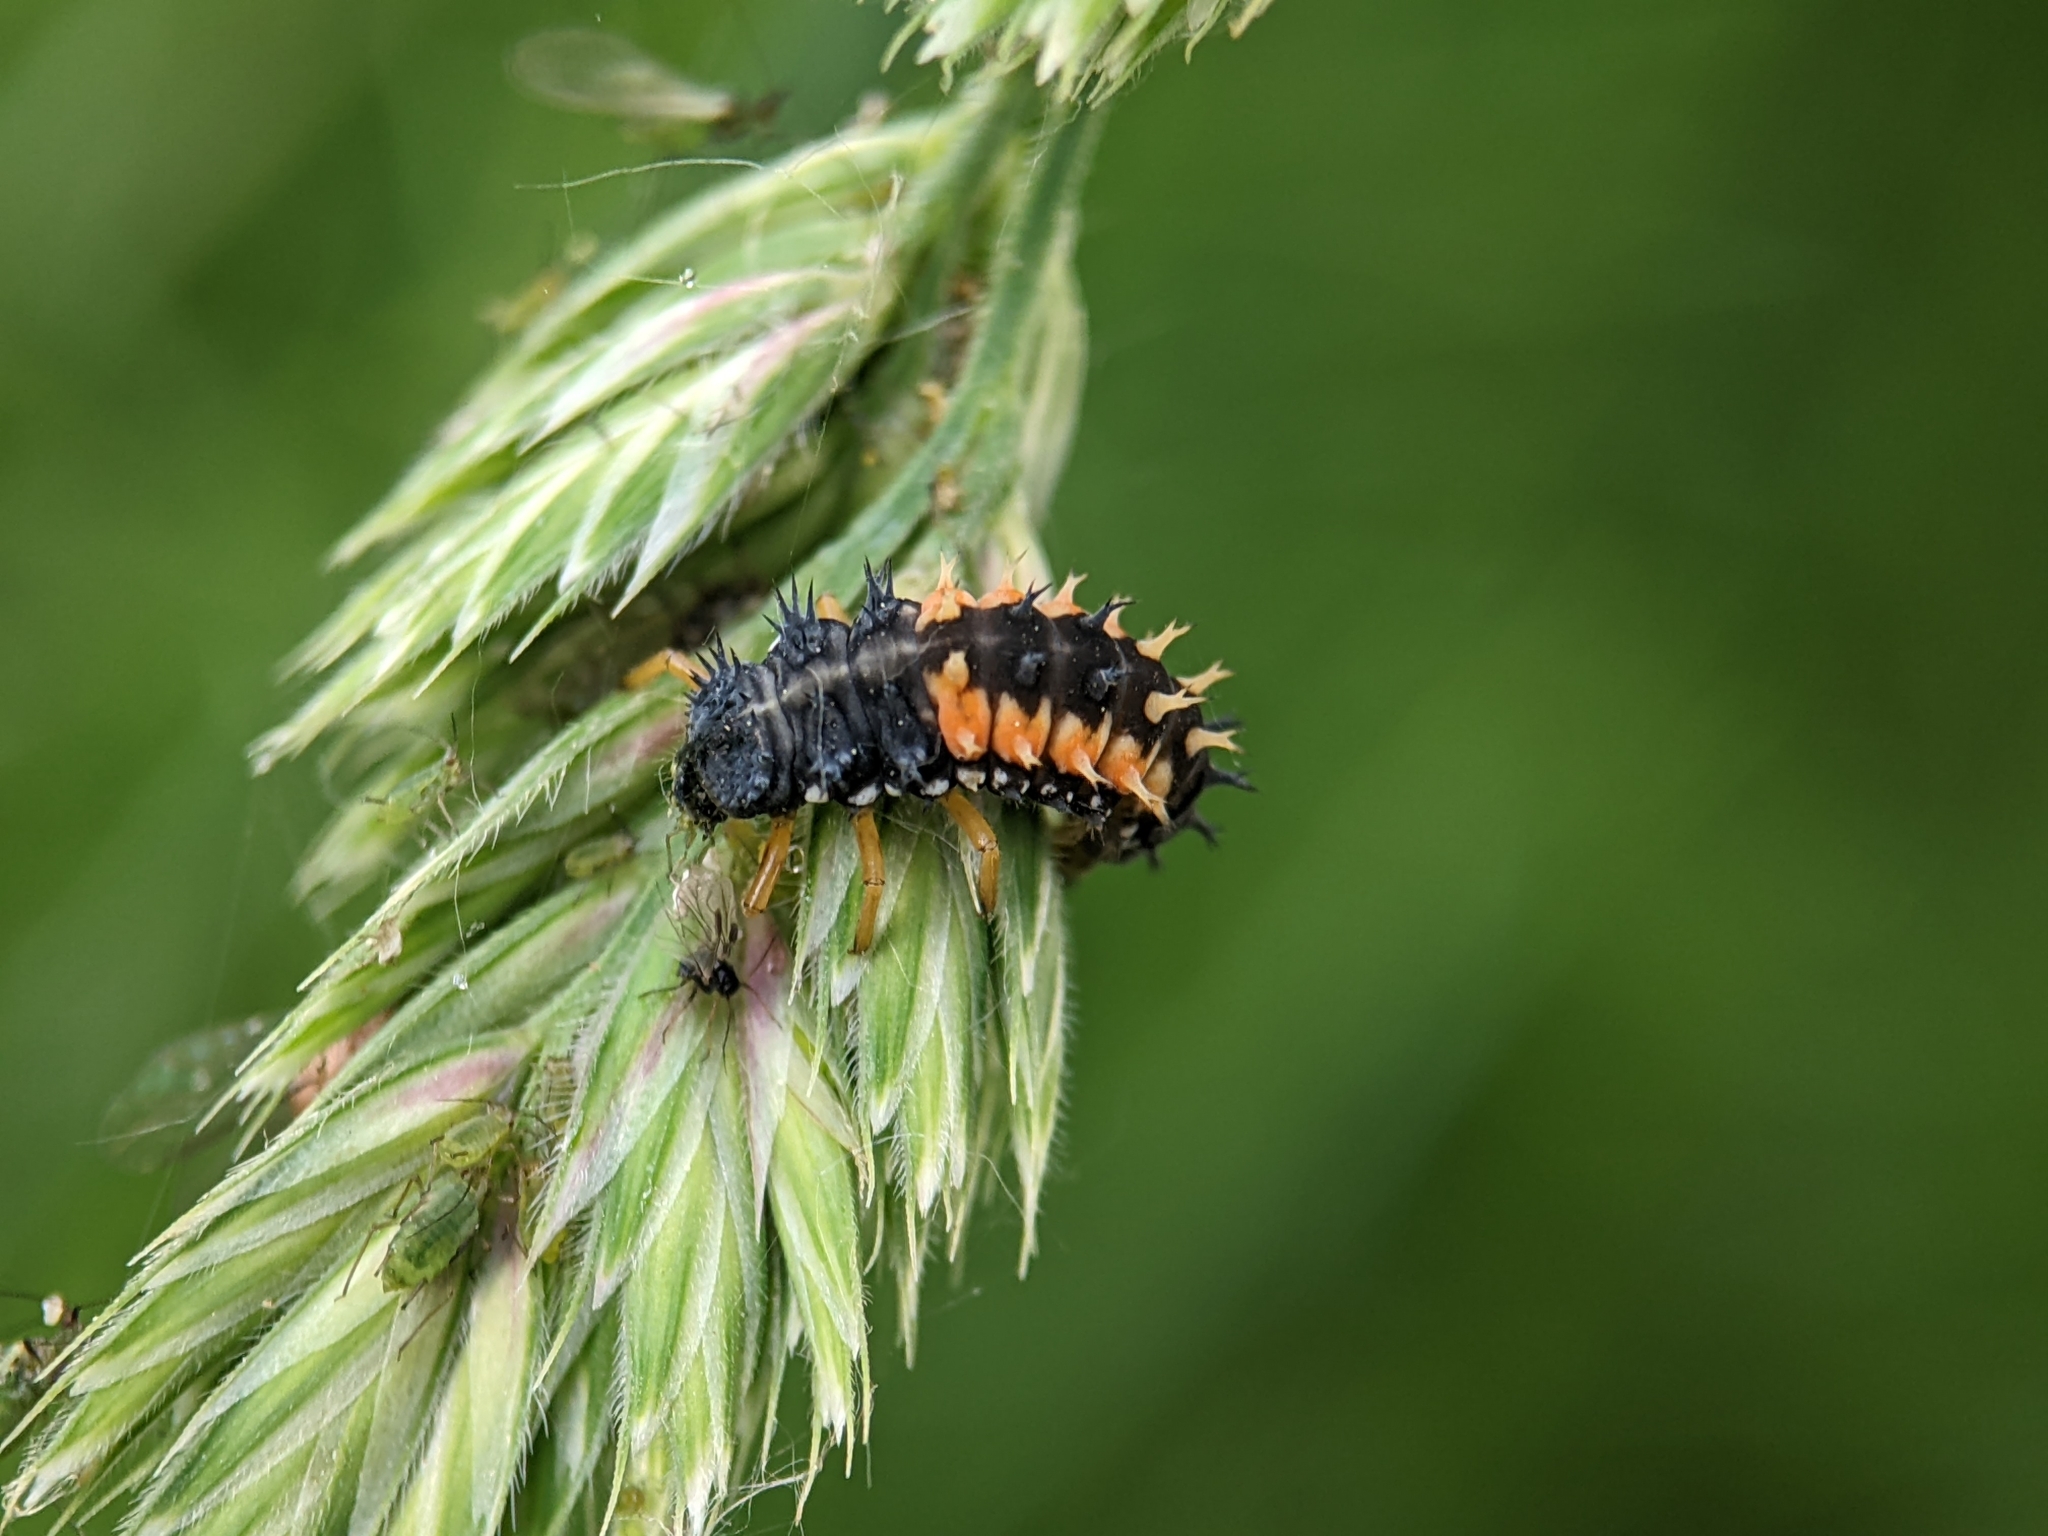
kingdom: Animalia
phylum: Arthropoda
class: Insecta
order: Coleoptera
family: Coccinellidae
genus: Harmonia
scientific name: Harmonia axyridis
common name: Harlequin ladybird
